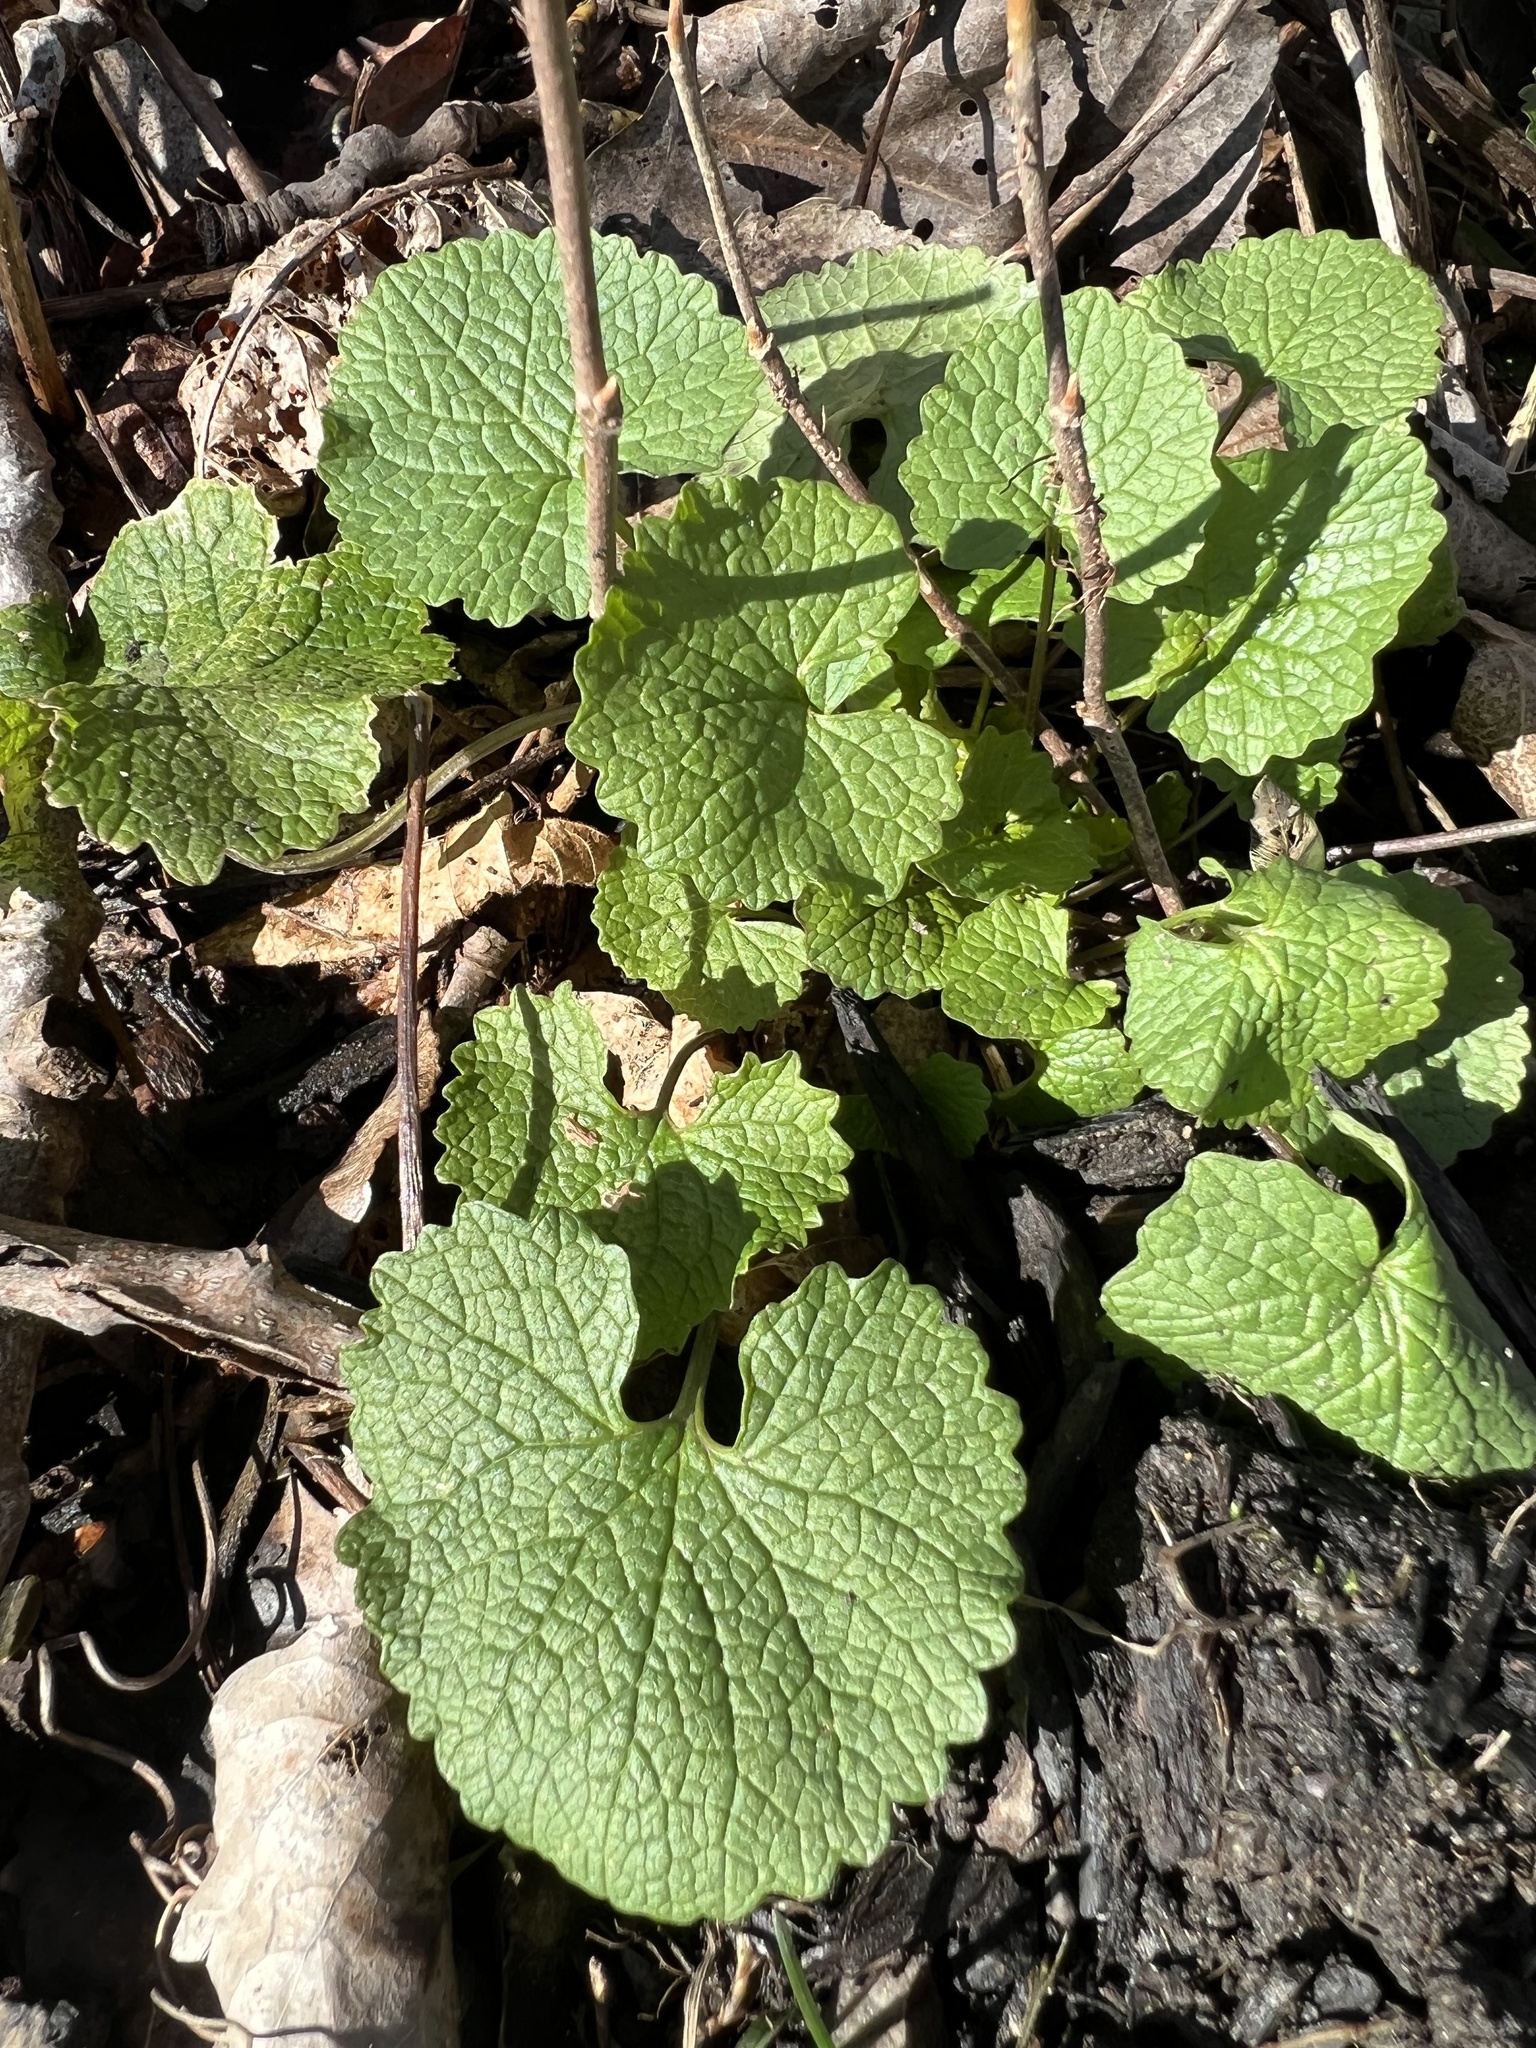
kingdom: Plantae
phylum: Tracheophyta
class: Magnoliopsida
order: Brassicales
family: Brassicaceae
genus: Alliaria
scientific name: Alliaria petiolata
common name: Garlic mustard
